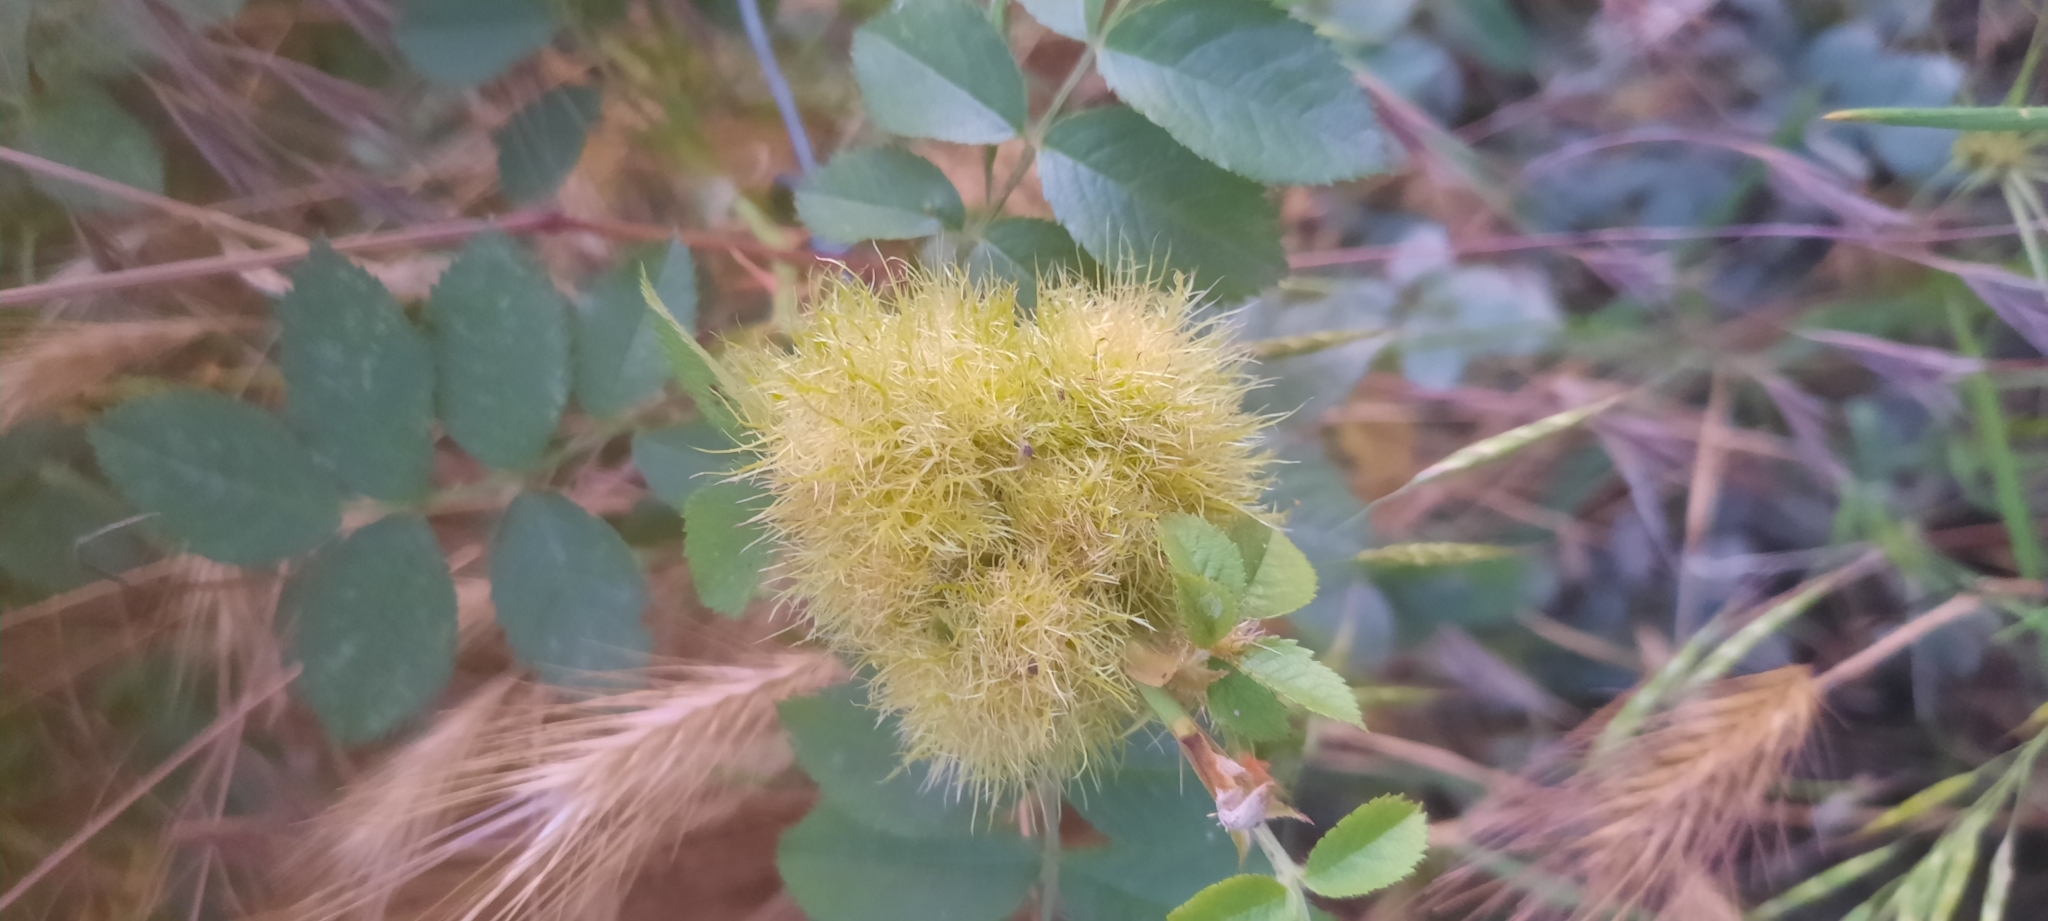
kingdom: Animalia
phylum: Arthropoda
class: Insecta
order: Hymenoptera
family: Cynipidae
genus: Diplolepis
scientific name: Diplolepis rosae
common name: Bedeguar gall
